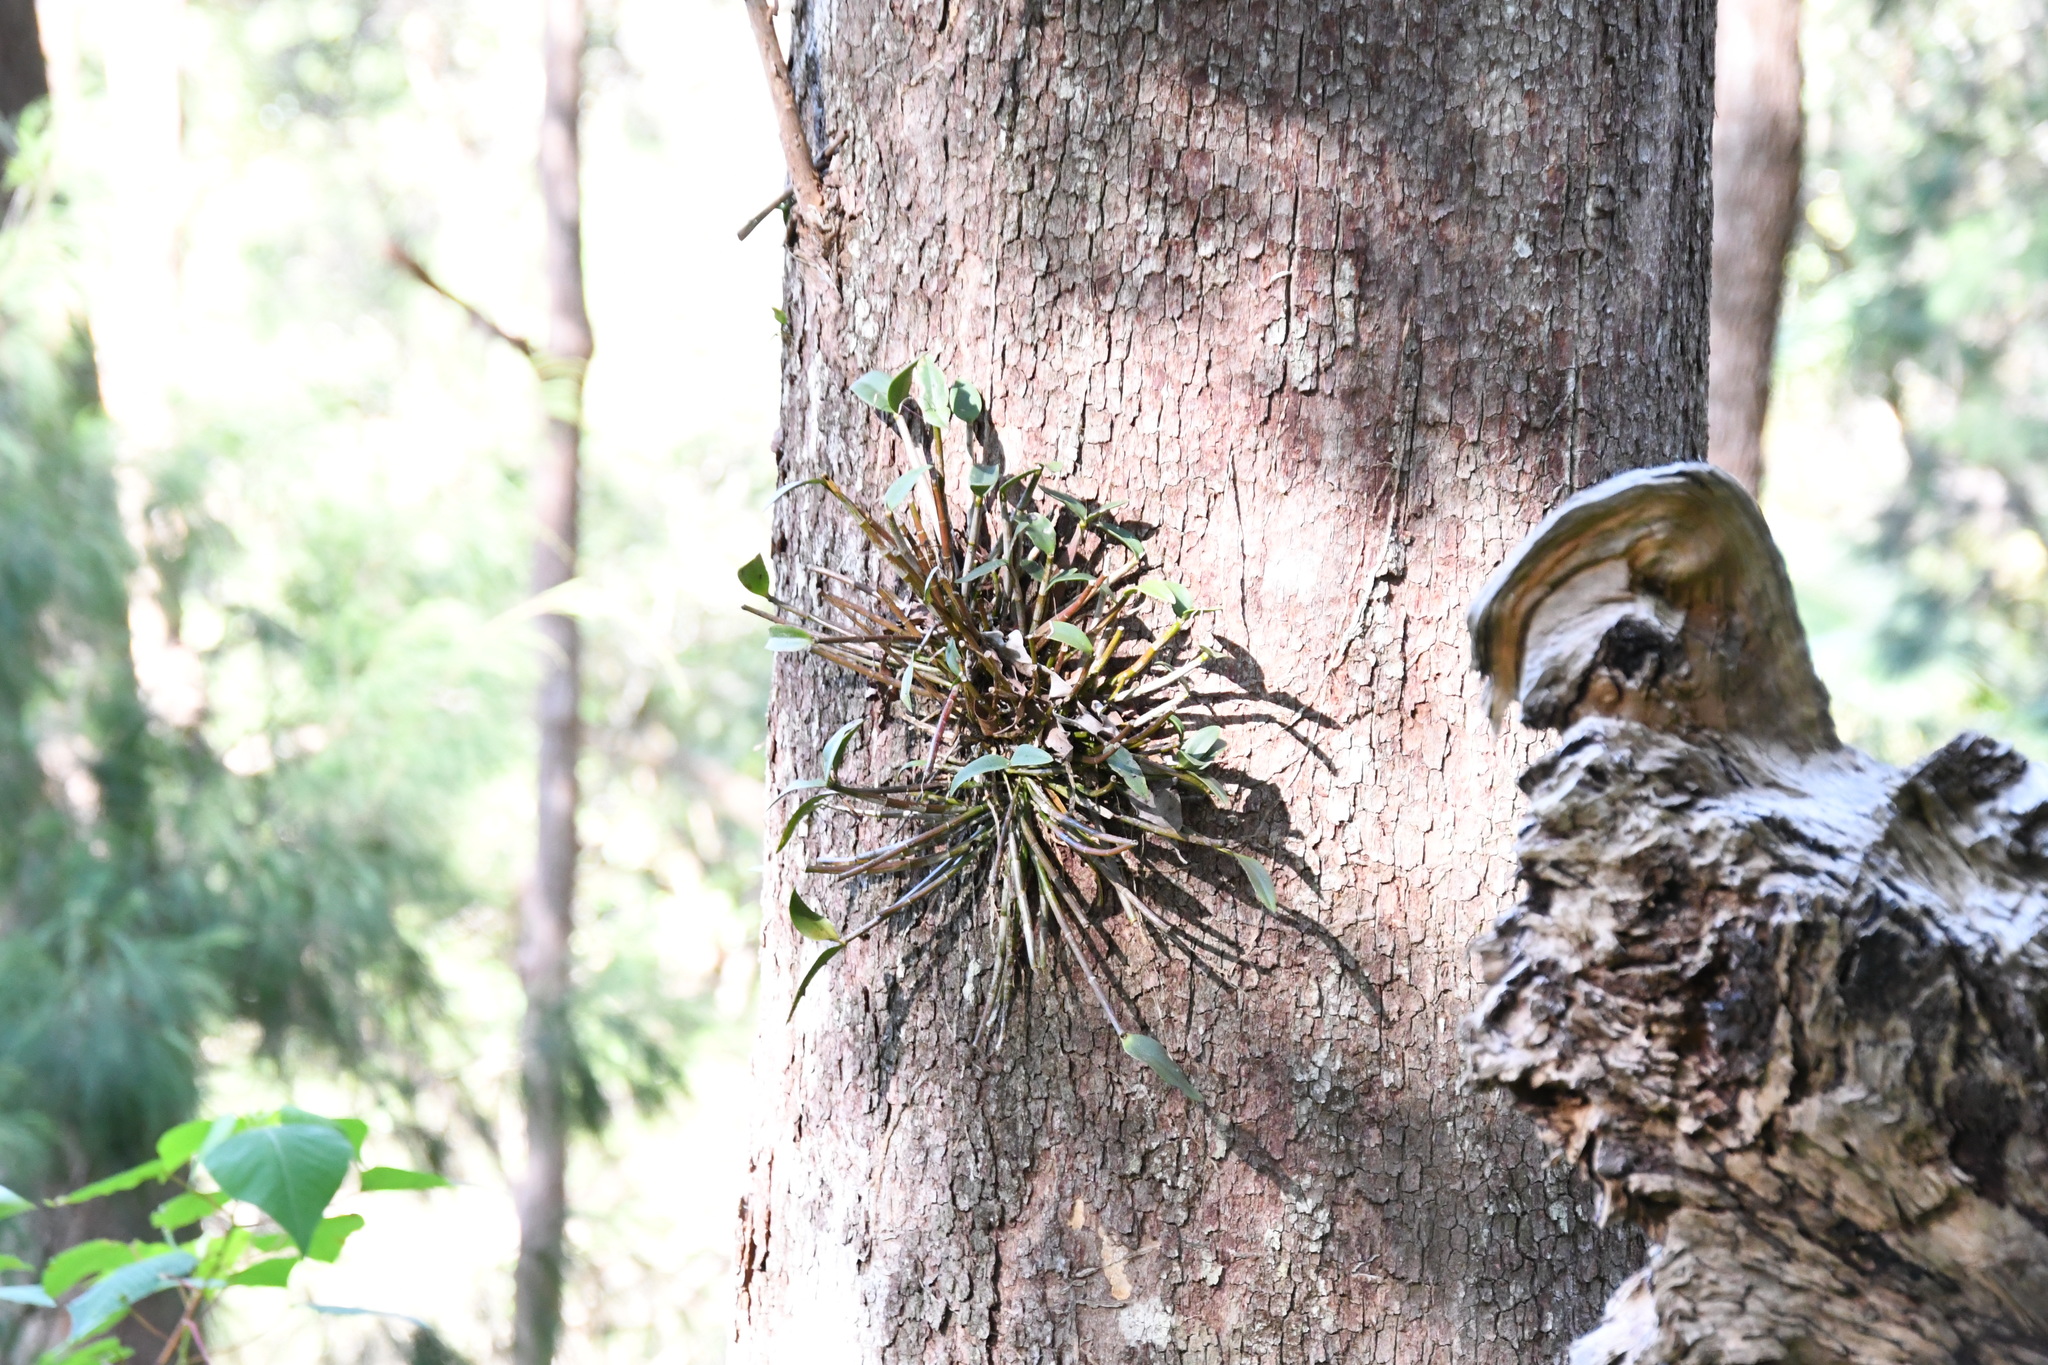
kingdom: Plantae
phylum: Tracheophyta
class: Liliopsida
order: Asparagales
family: Orchidaceae
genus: Dendrobium
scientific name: Dendrobium aemulum
